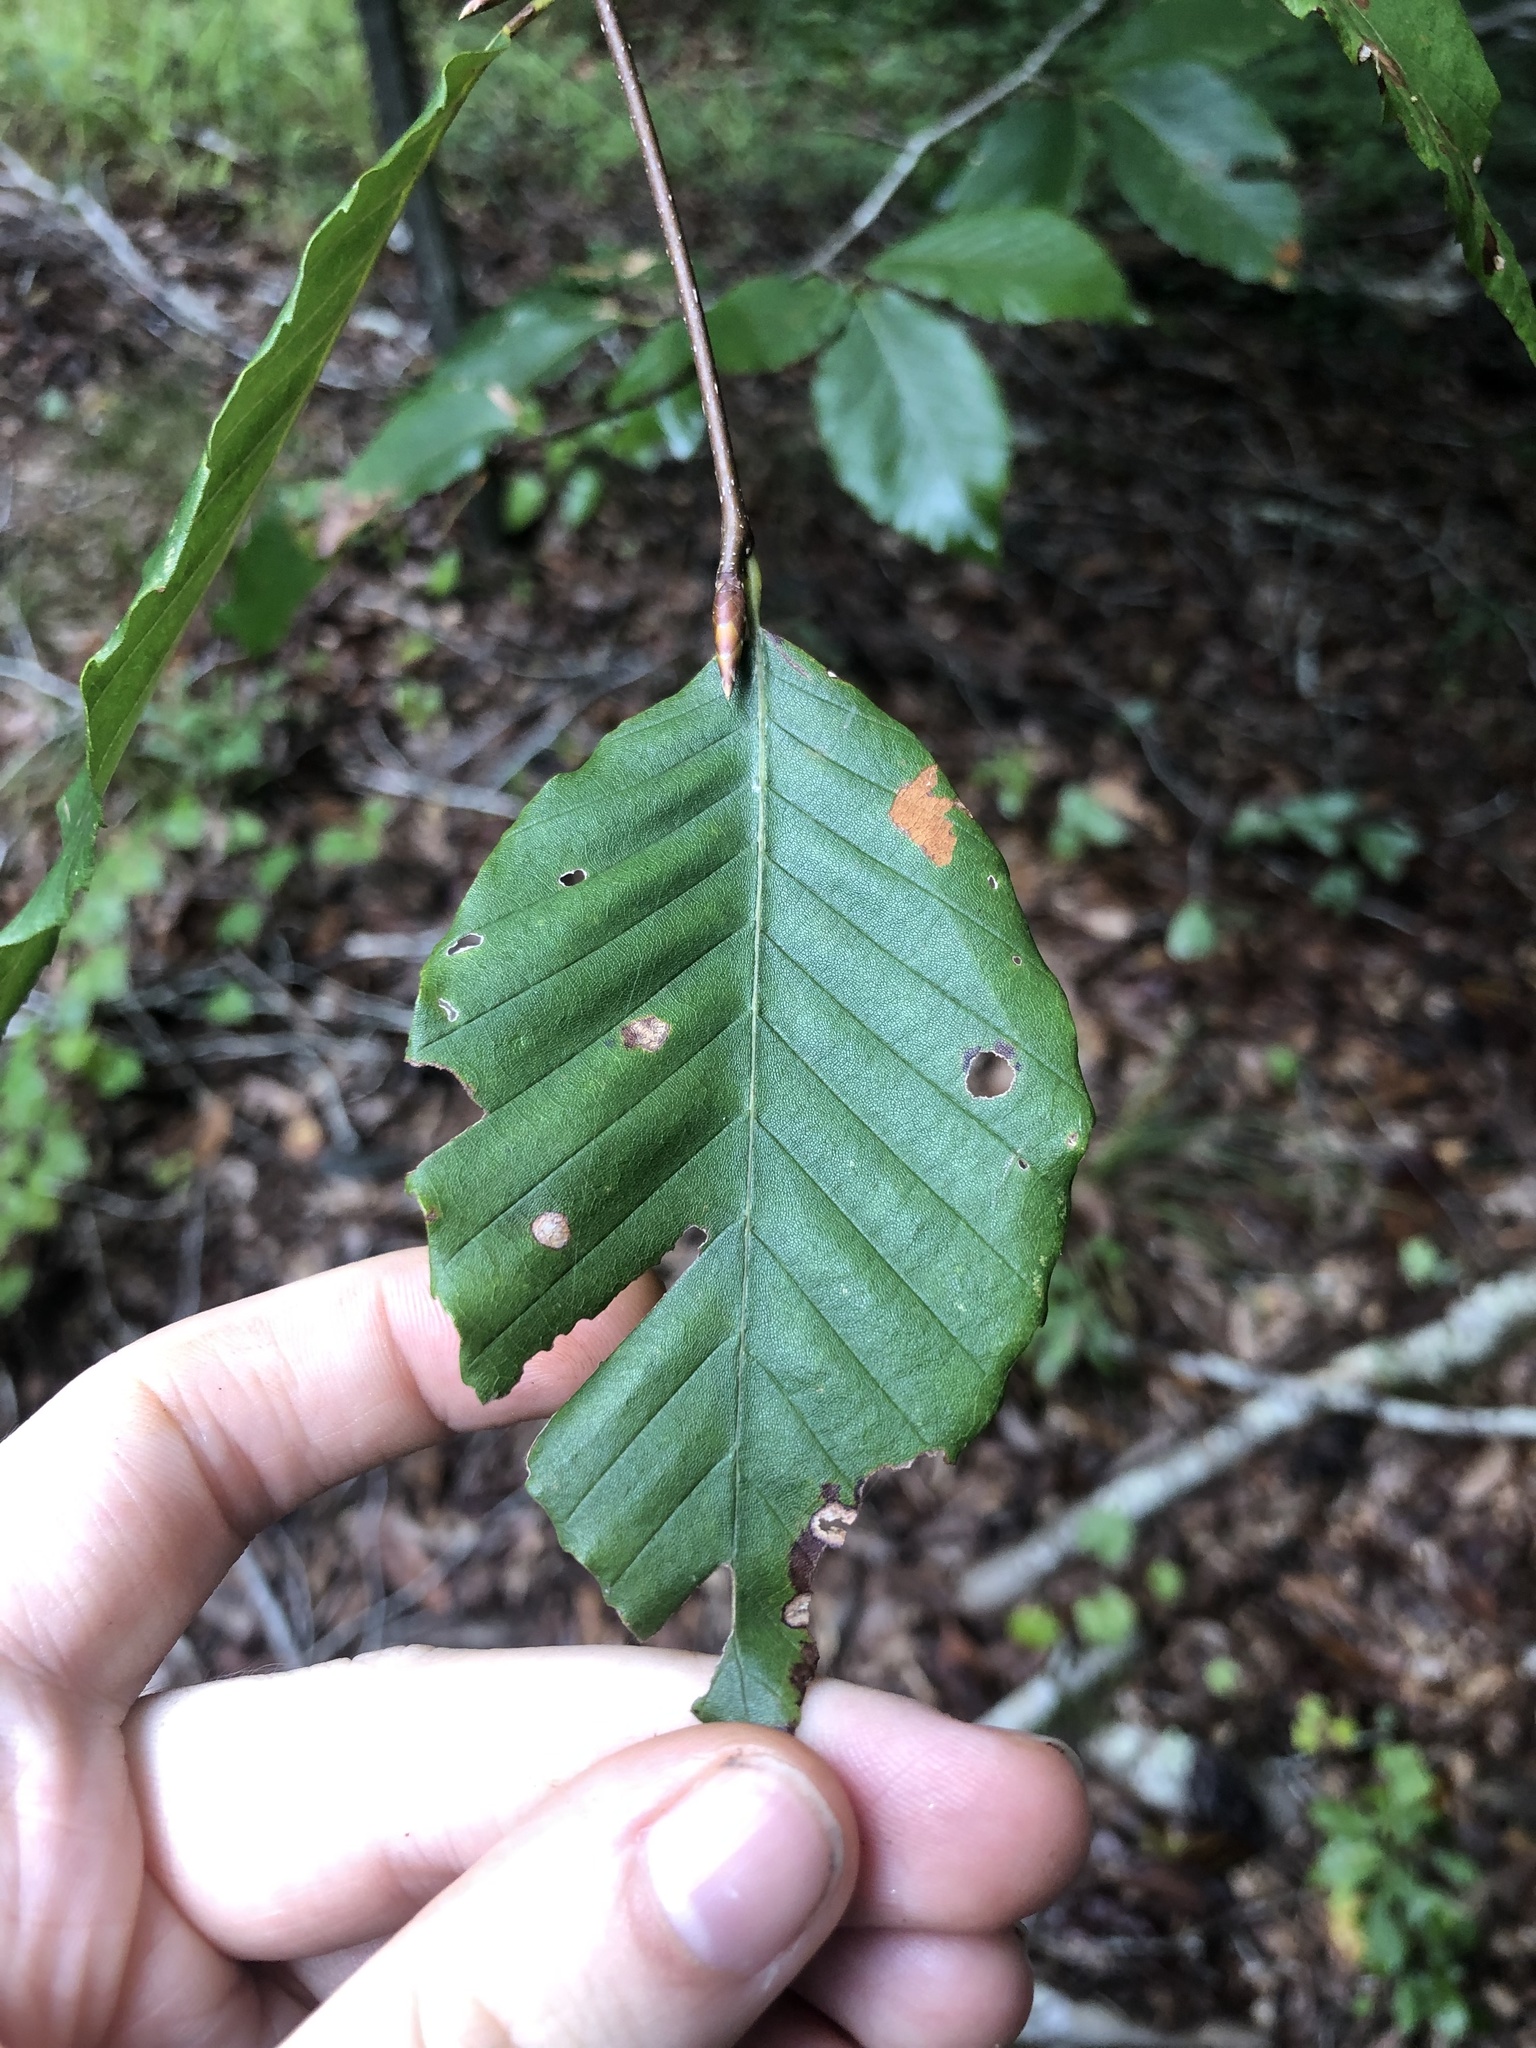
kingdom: Plantae
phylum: Tracheophyta
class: Magnoliopsida
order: Fagales
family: Fagaceae
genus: Fagus
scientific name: Fagus grandifolia
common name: American beech
